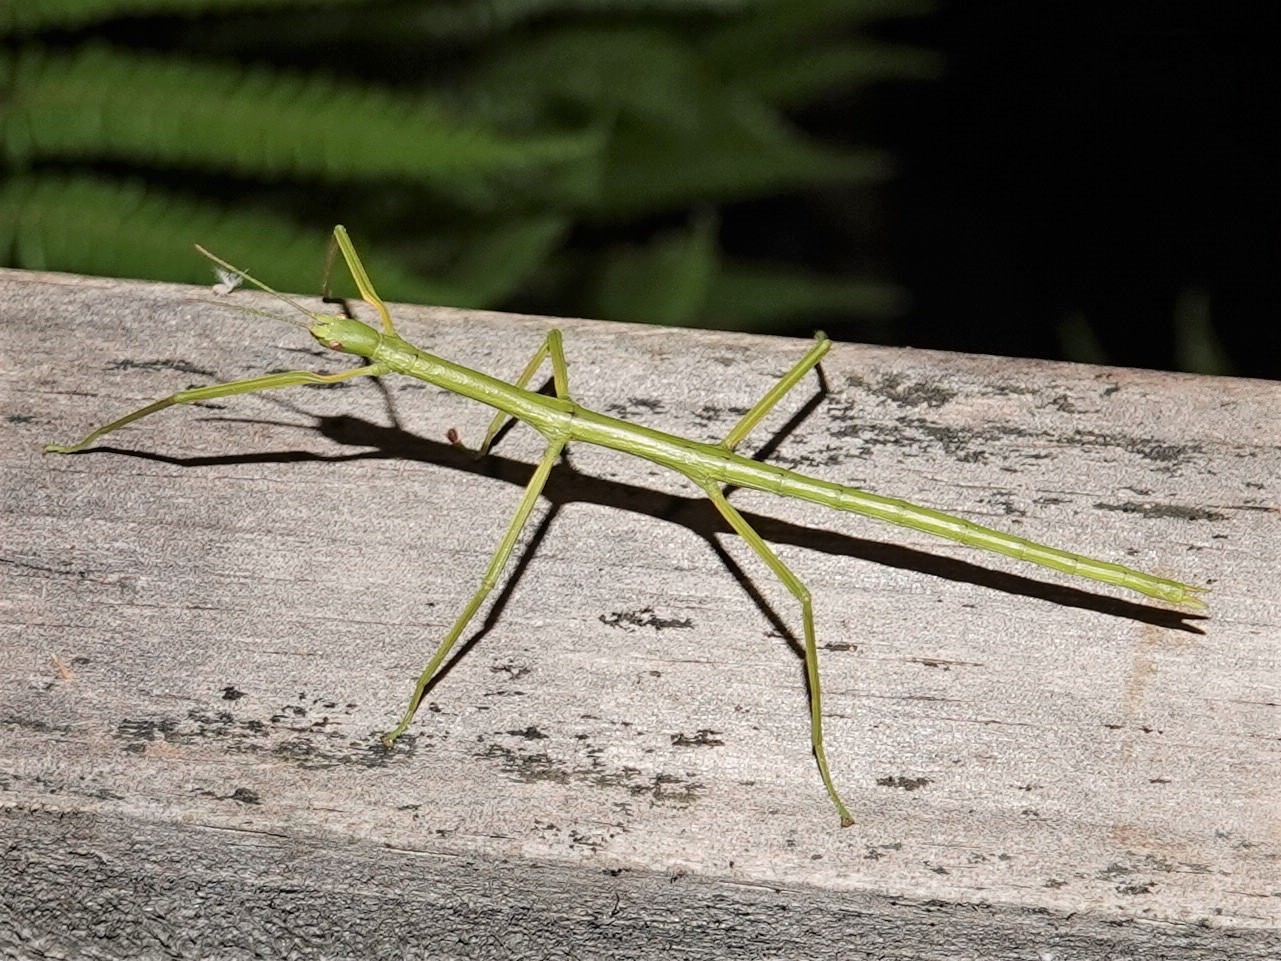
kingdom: Animalia
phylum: Arthropoda
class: Insecta
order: Phasmida
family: Phasmatidae
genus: Clitarchus
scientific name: Clitarchus hookeri
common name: Smooth stick insect
